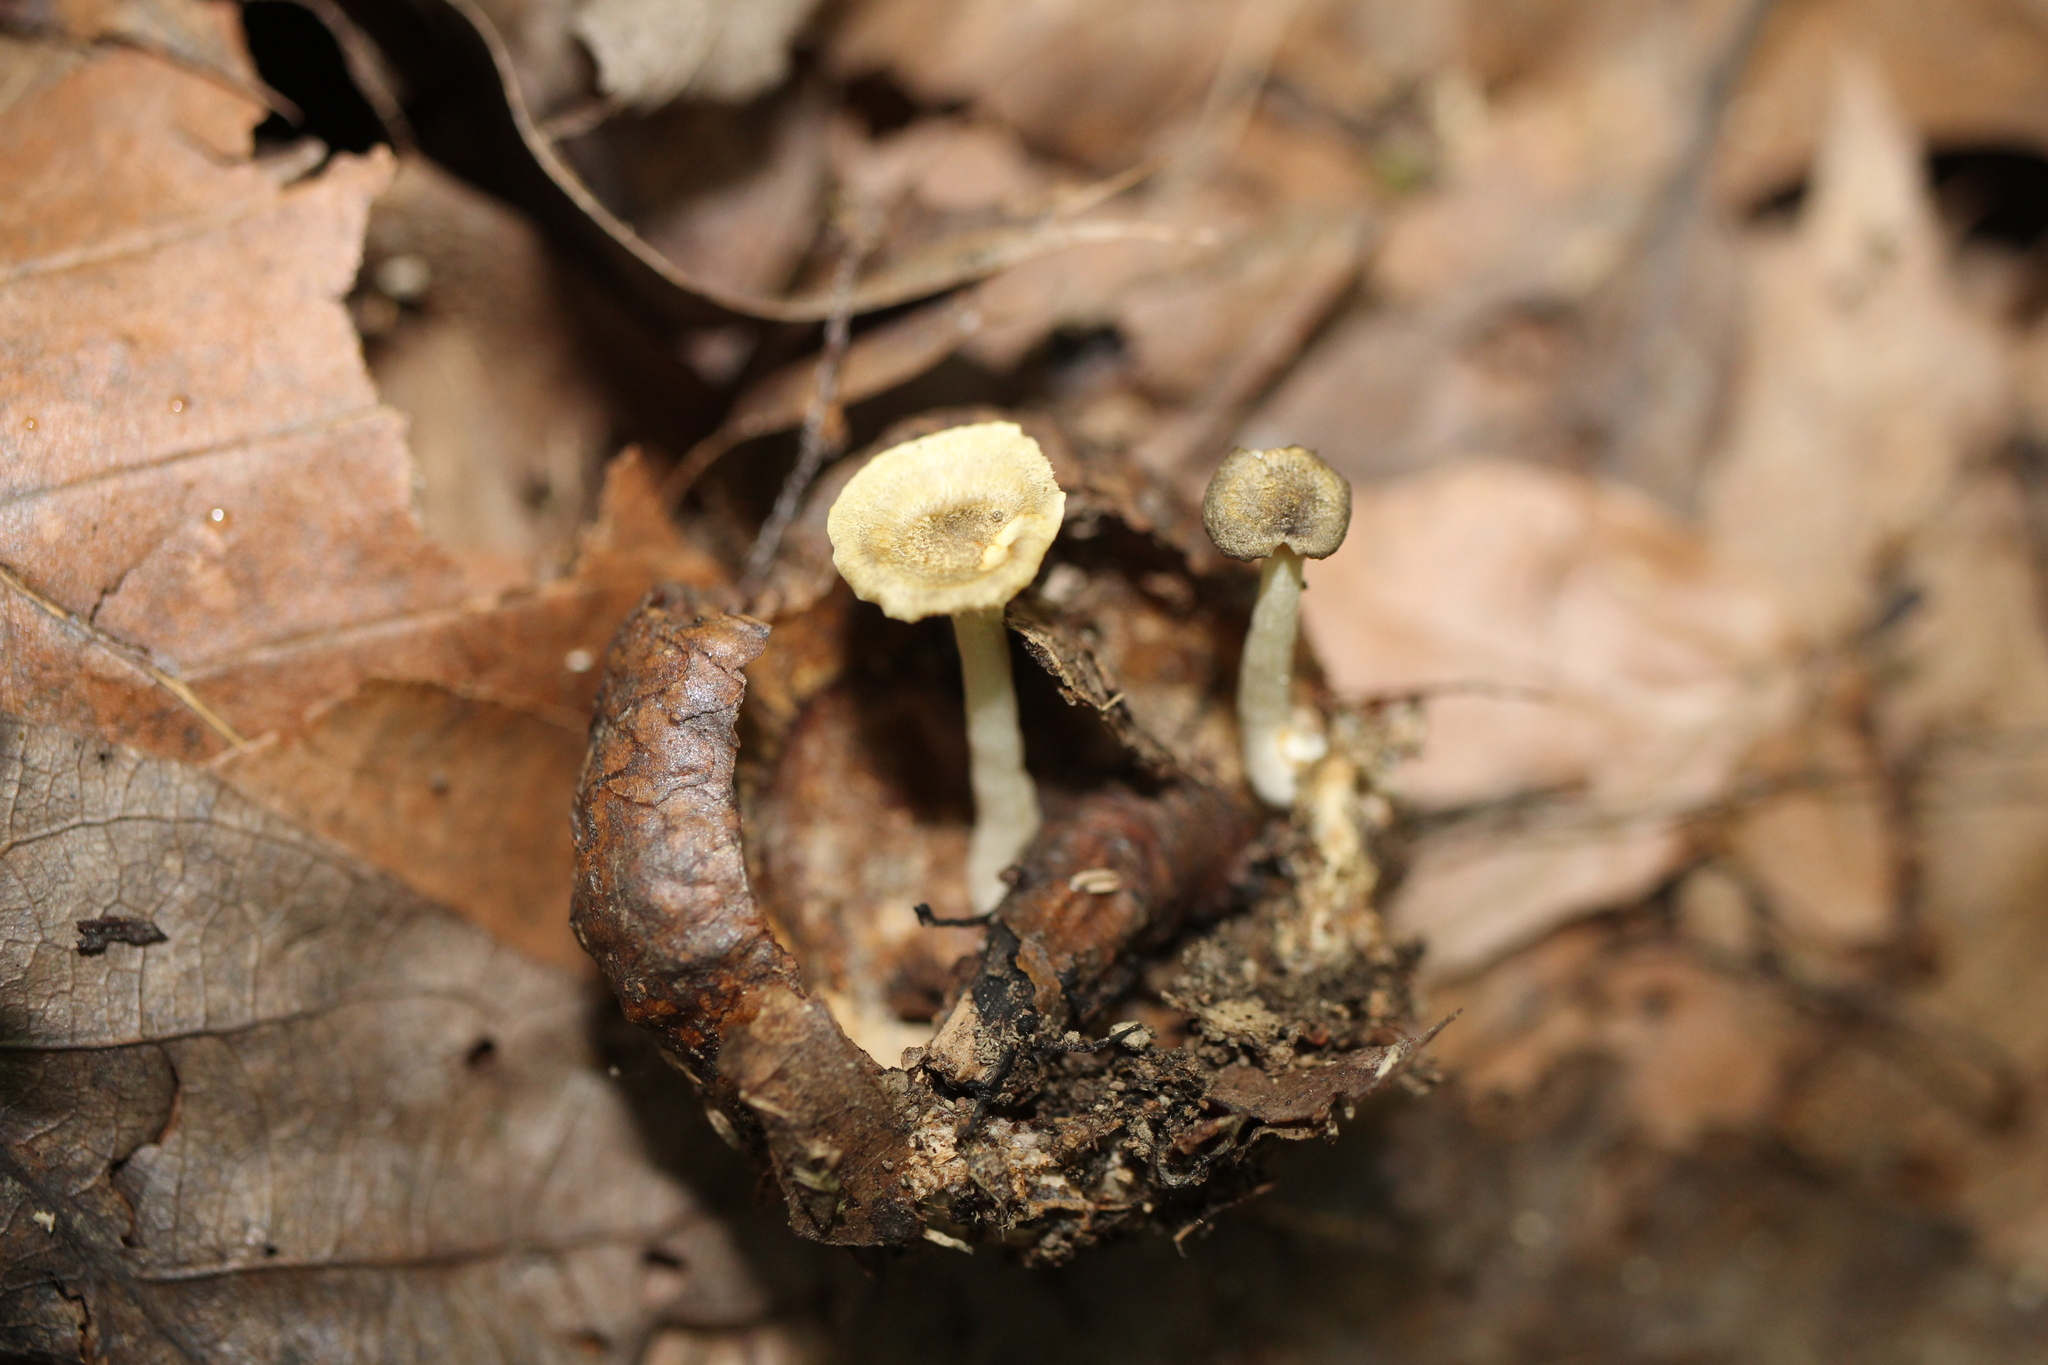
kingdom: Fungi
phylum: Basidiomycota
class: Agaricomycetes
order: Agaricales
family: Marasmiaceae
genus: Gerronema
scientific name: Gerronema strombodes
